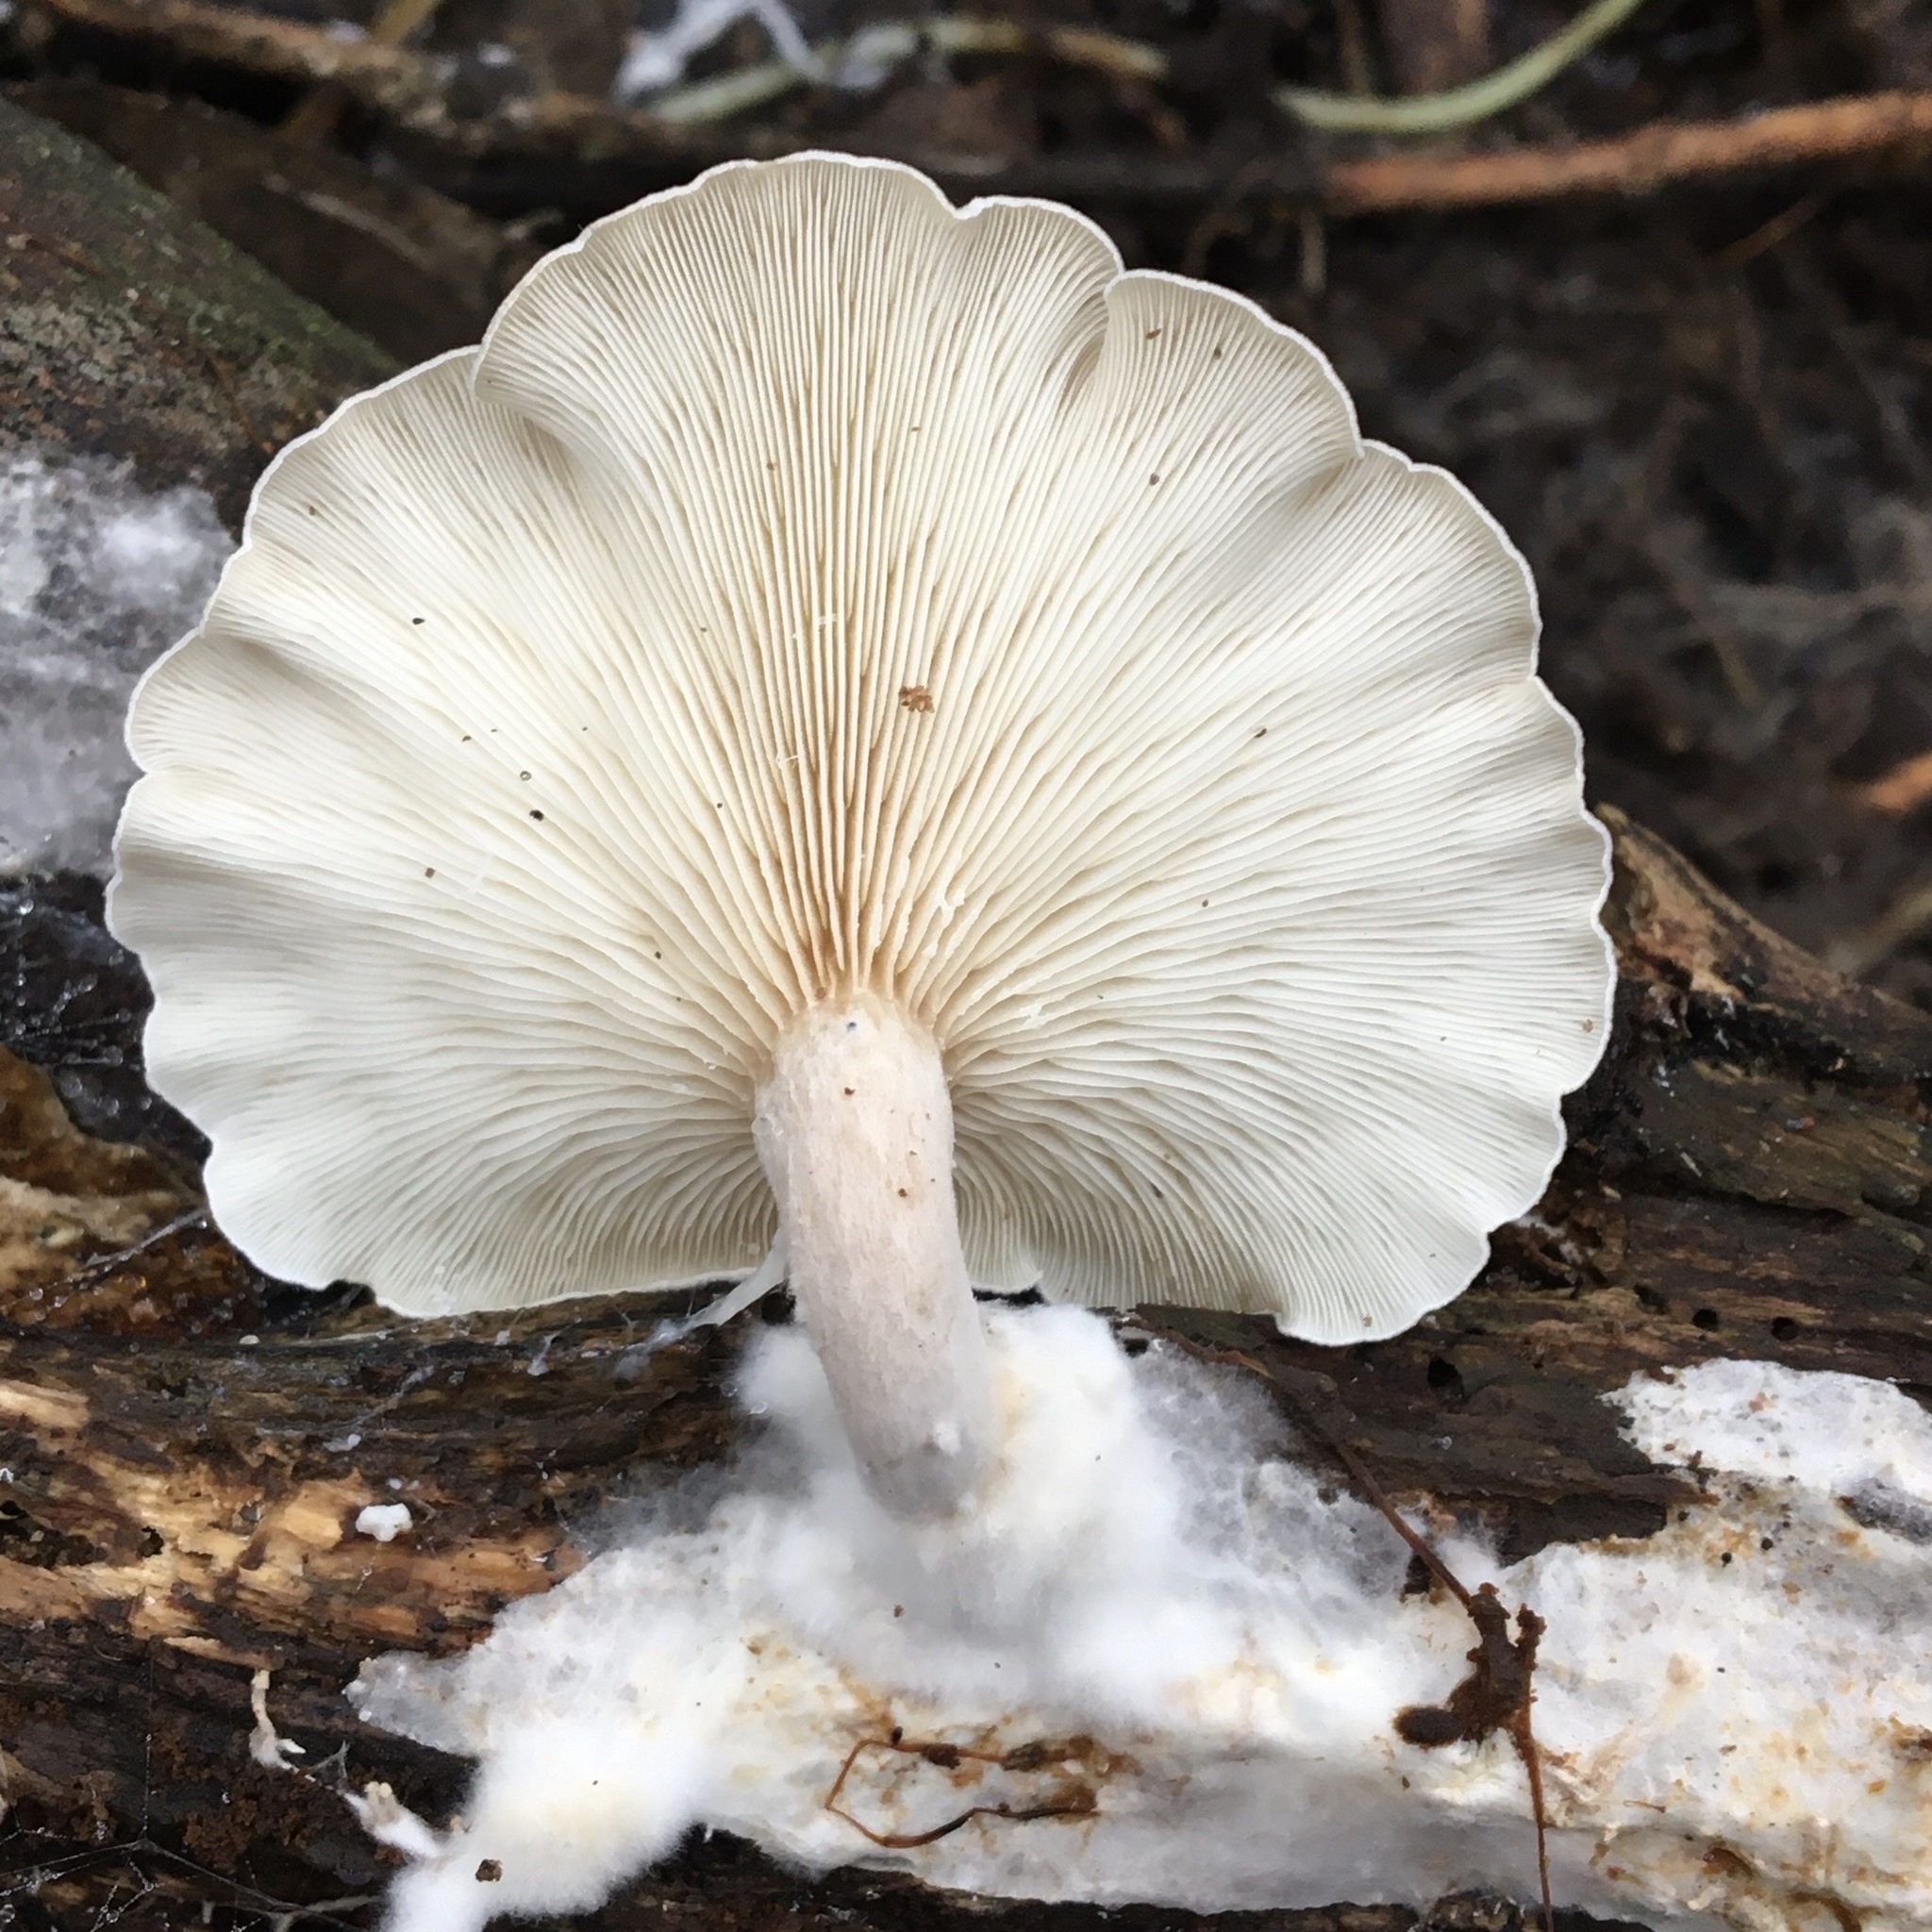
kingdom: Fungi
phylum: Basidiomycota
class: Agaricomycetes
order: Agaricales
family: Lyophyllaceae
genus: Ossicaulis
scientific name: Ossicaulis
